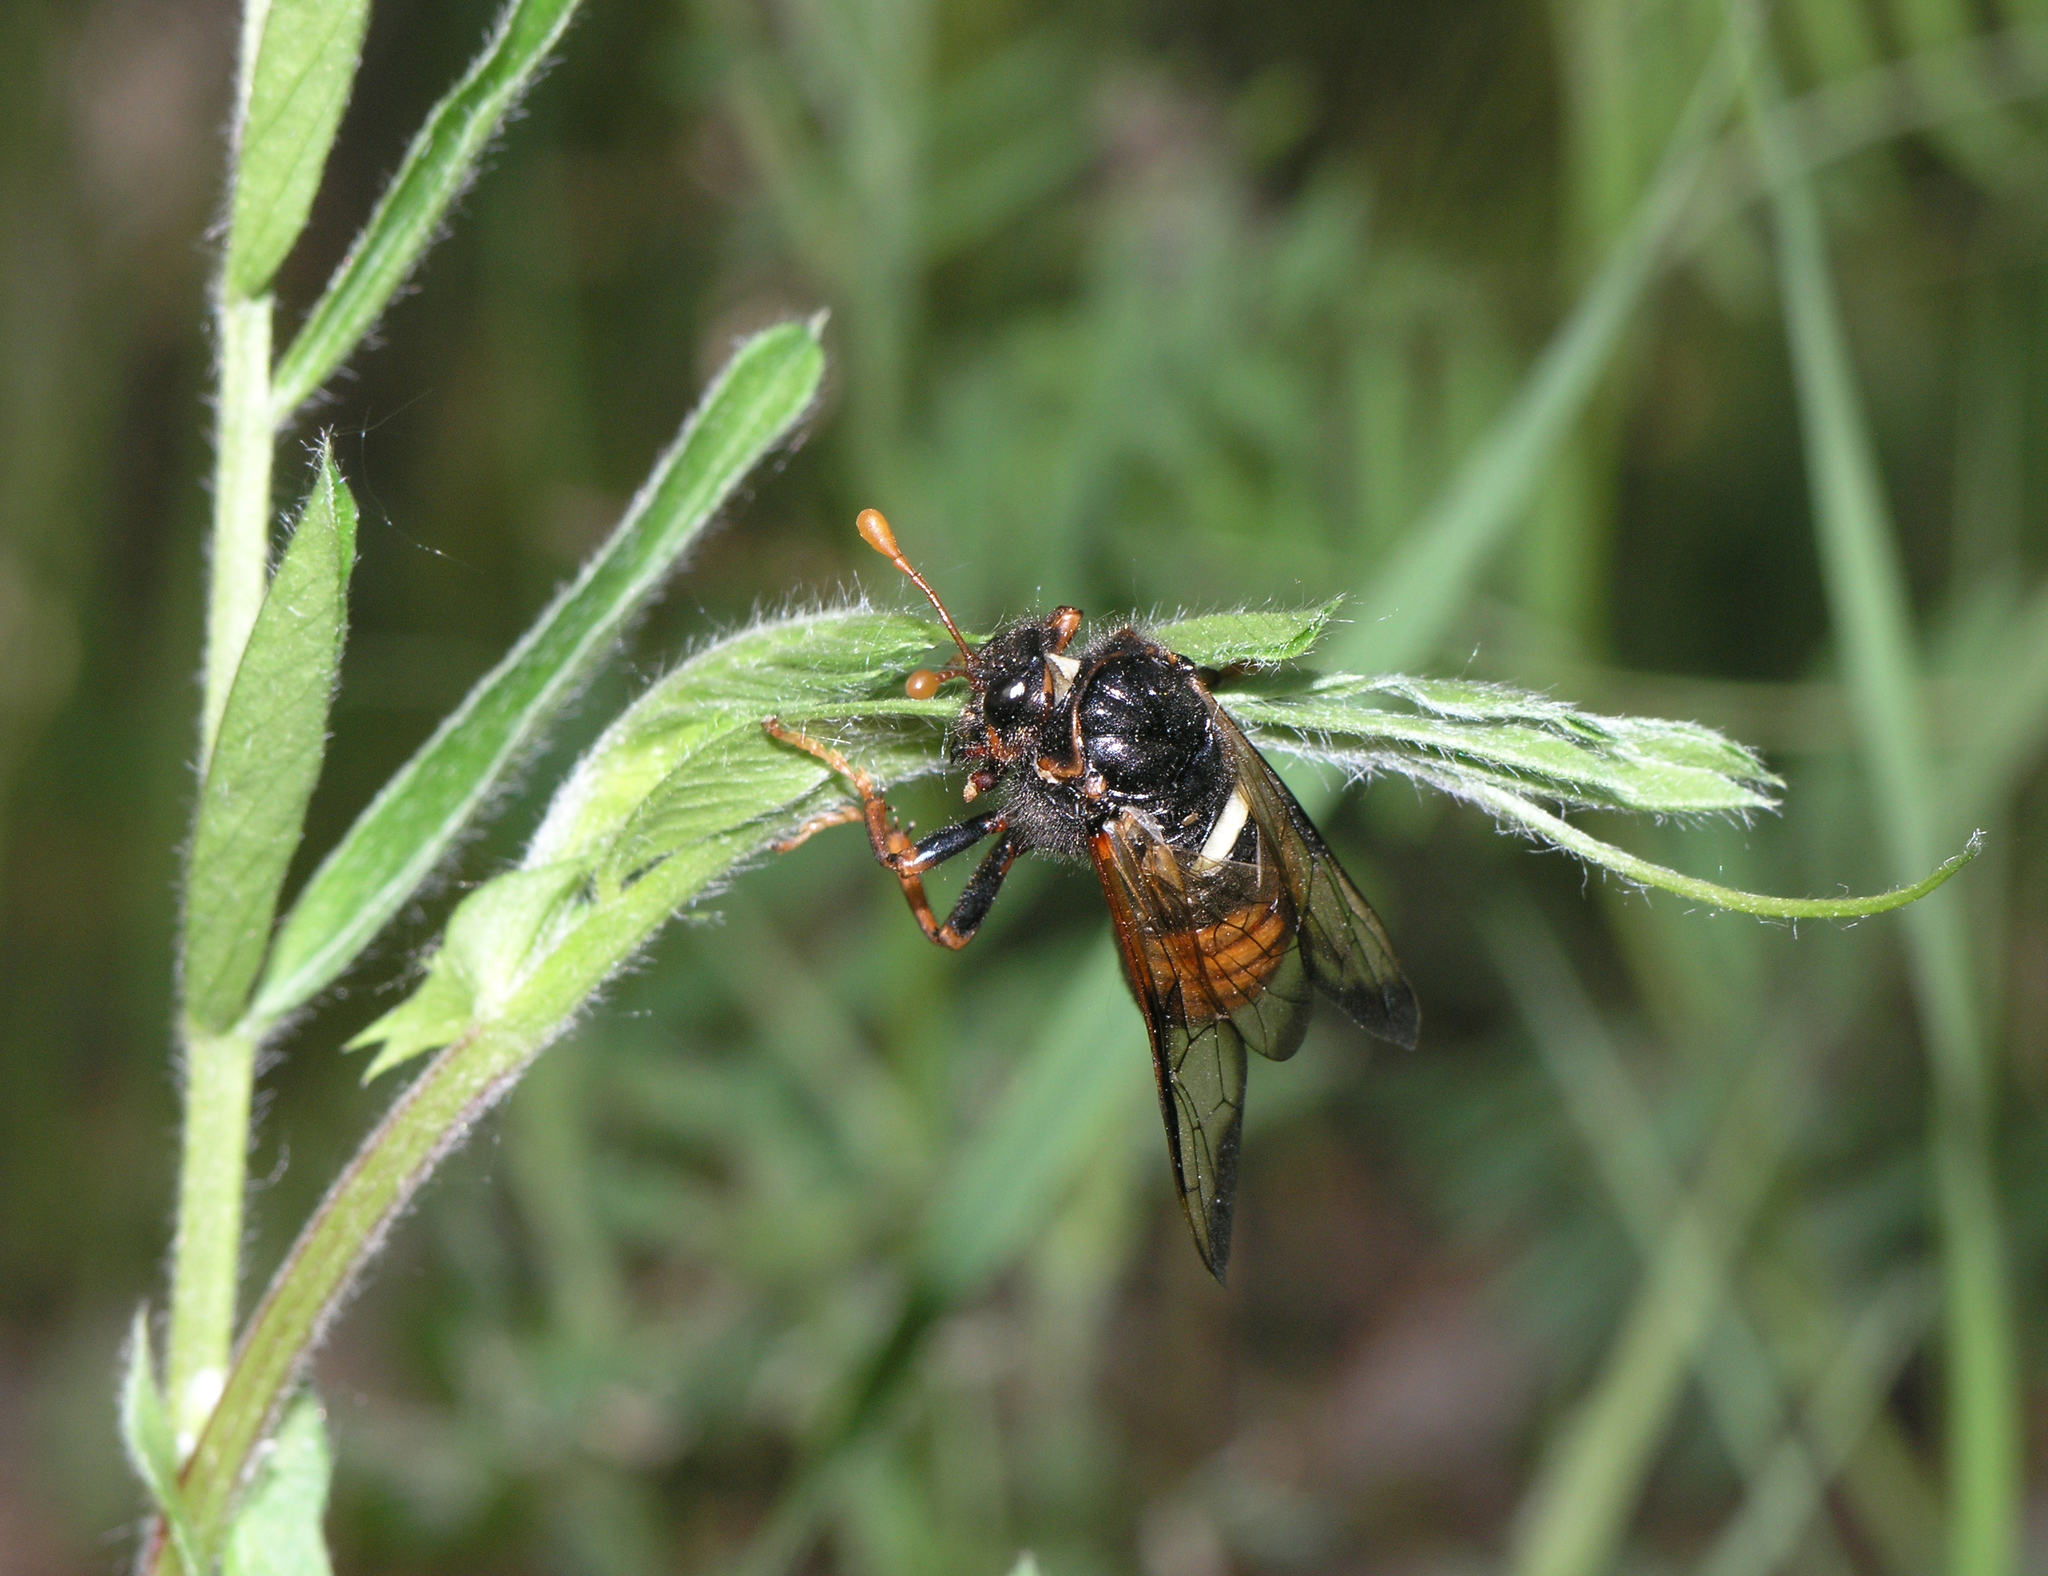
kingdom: Animalia
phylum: Arthropoda
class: Insecta
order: Hymenoptera
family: Cimbicidae
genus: Cimbex
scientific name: Cimbex femoratus
